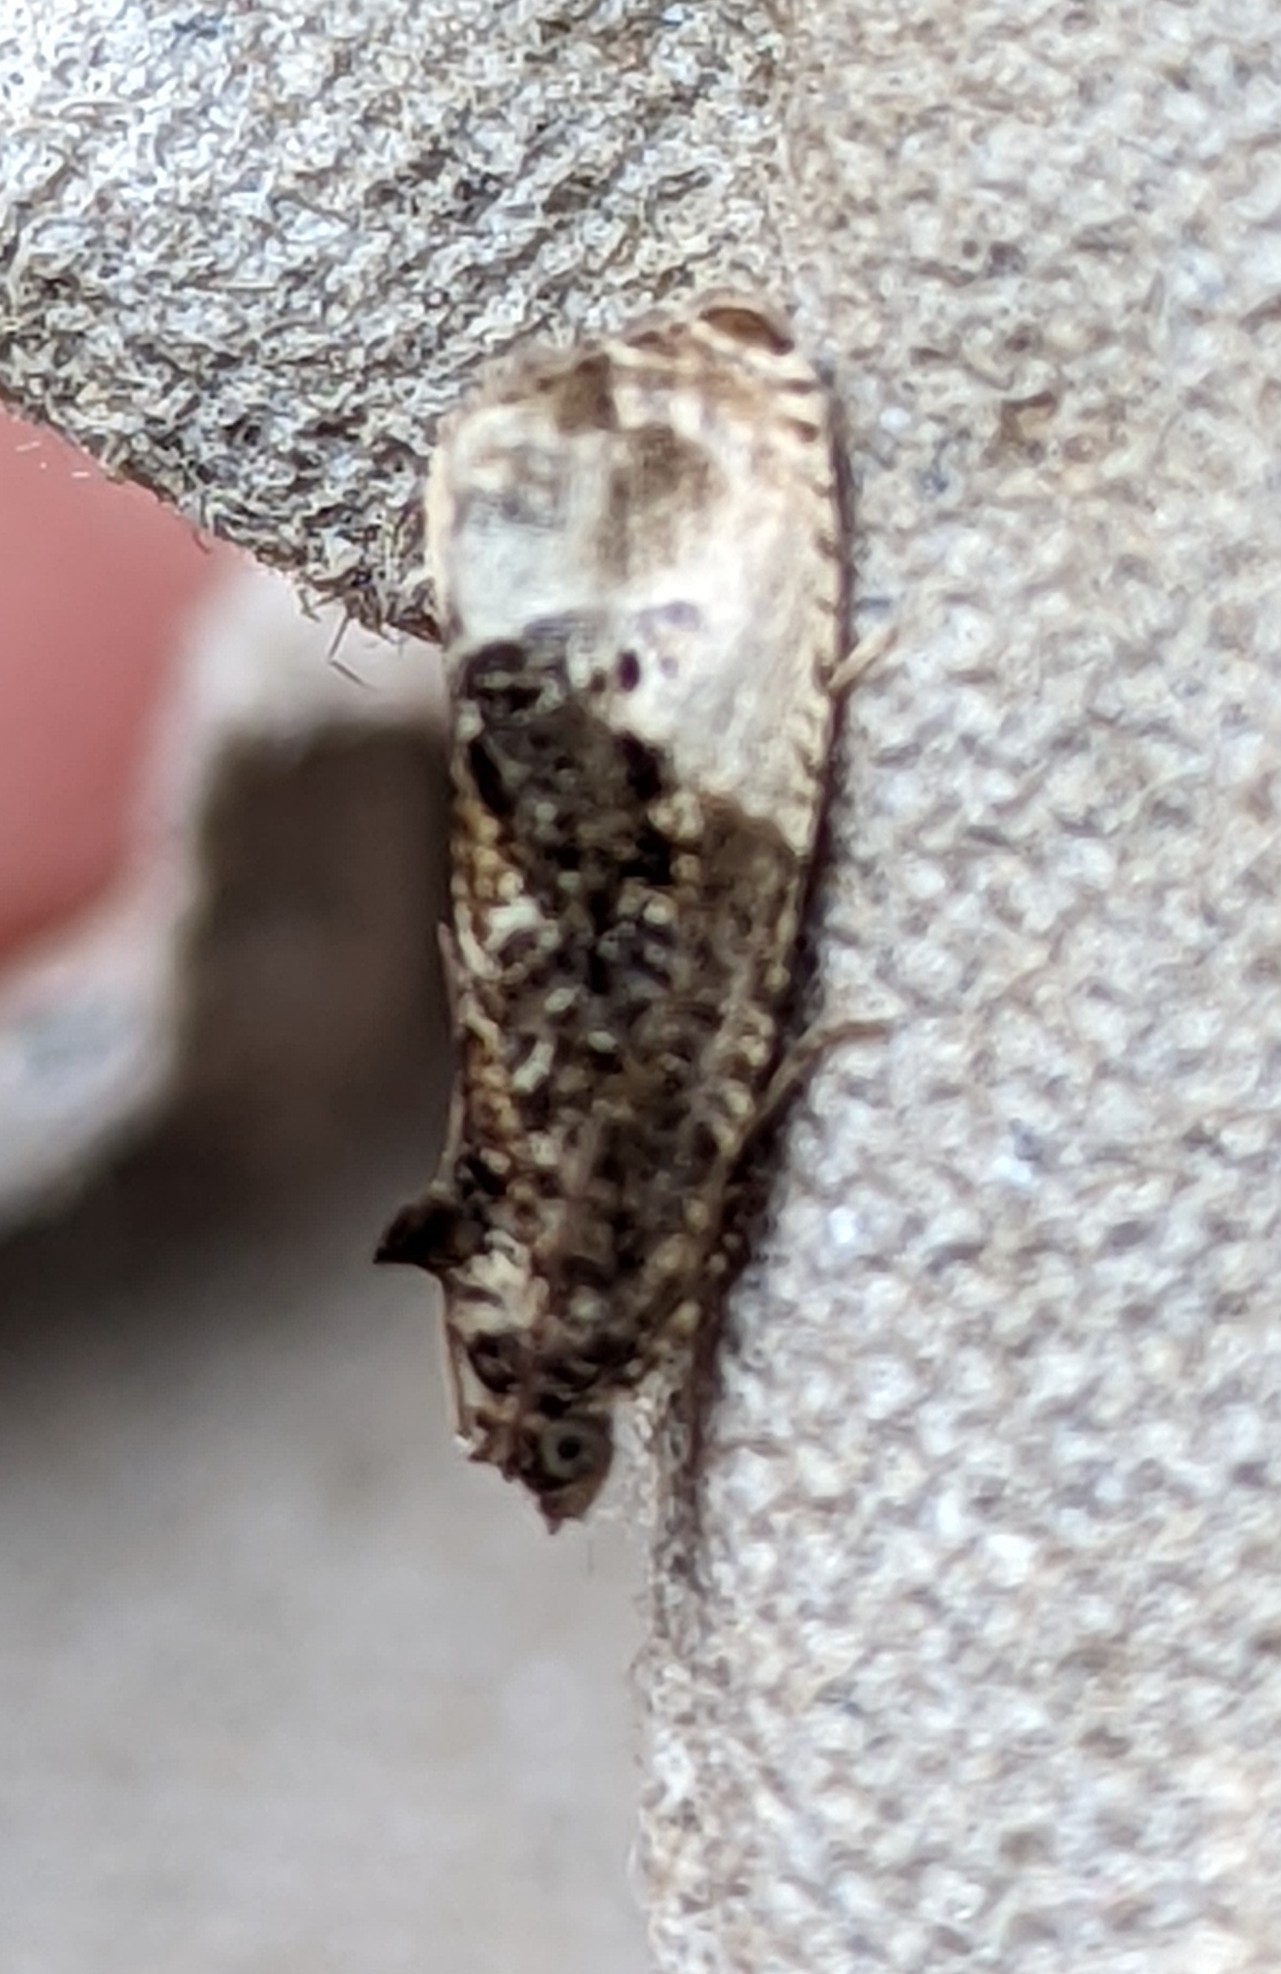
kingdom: Animalia
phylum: Arthropoda
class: Insecta
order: Lepidoptera
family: Tortricidae
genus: Hedya
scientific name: Hedya nubiferana
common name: Marbled orchard tortrix
